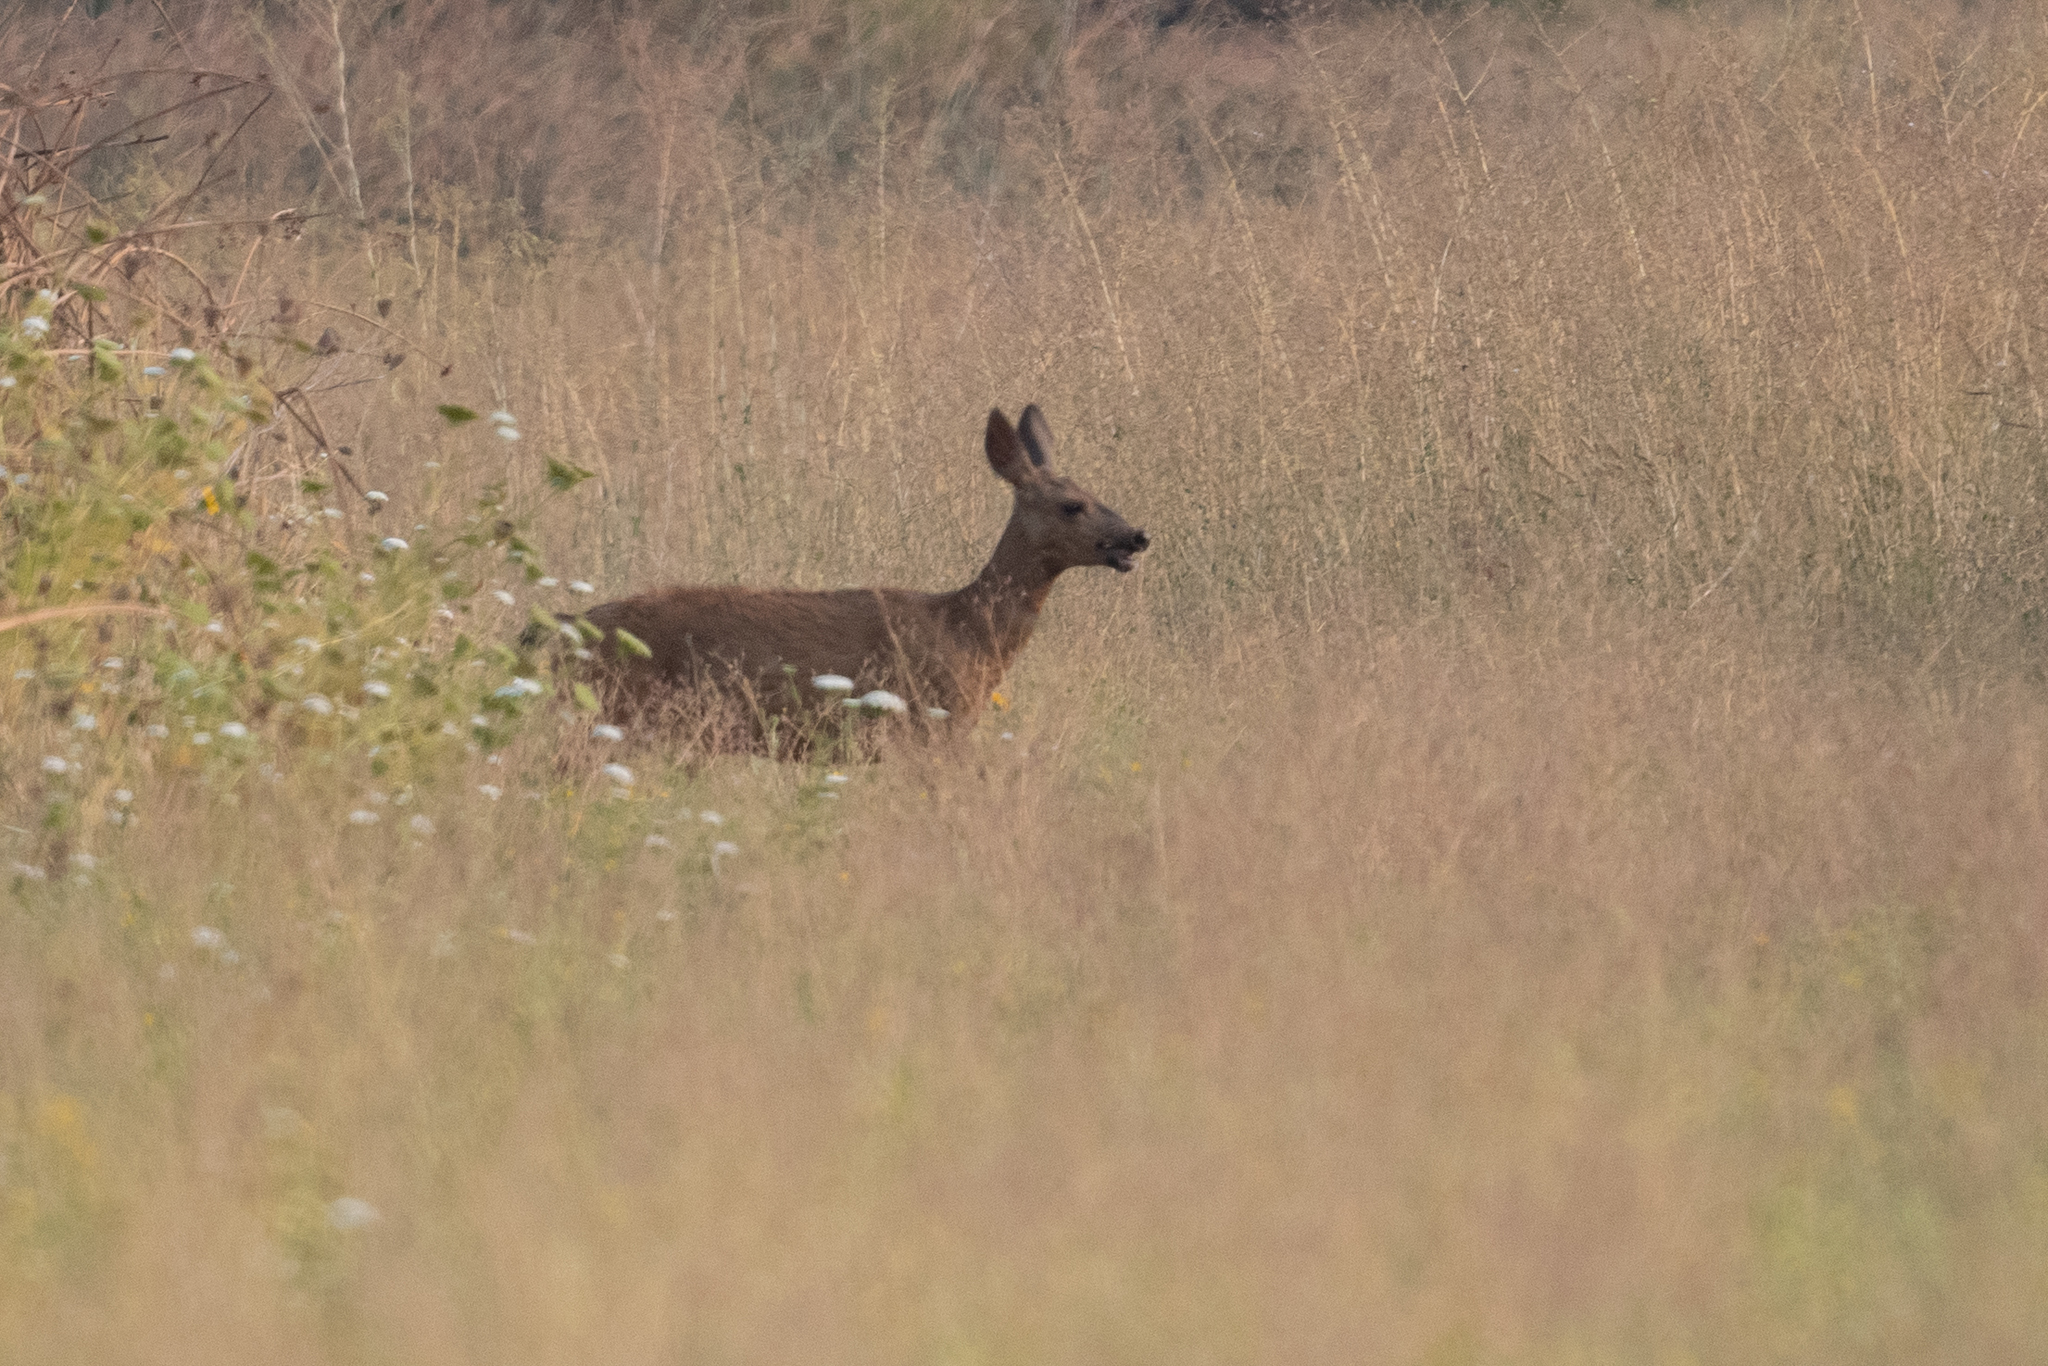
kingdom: Animalia
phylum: Chordata
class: Mammalia
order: Artiodactyla
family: Cervidae
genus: Odocoileus
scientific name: Odocoileus hemionus
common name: Mule deer
